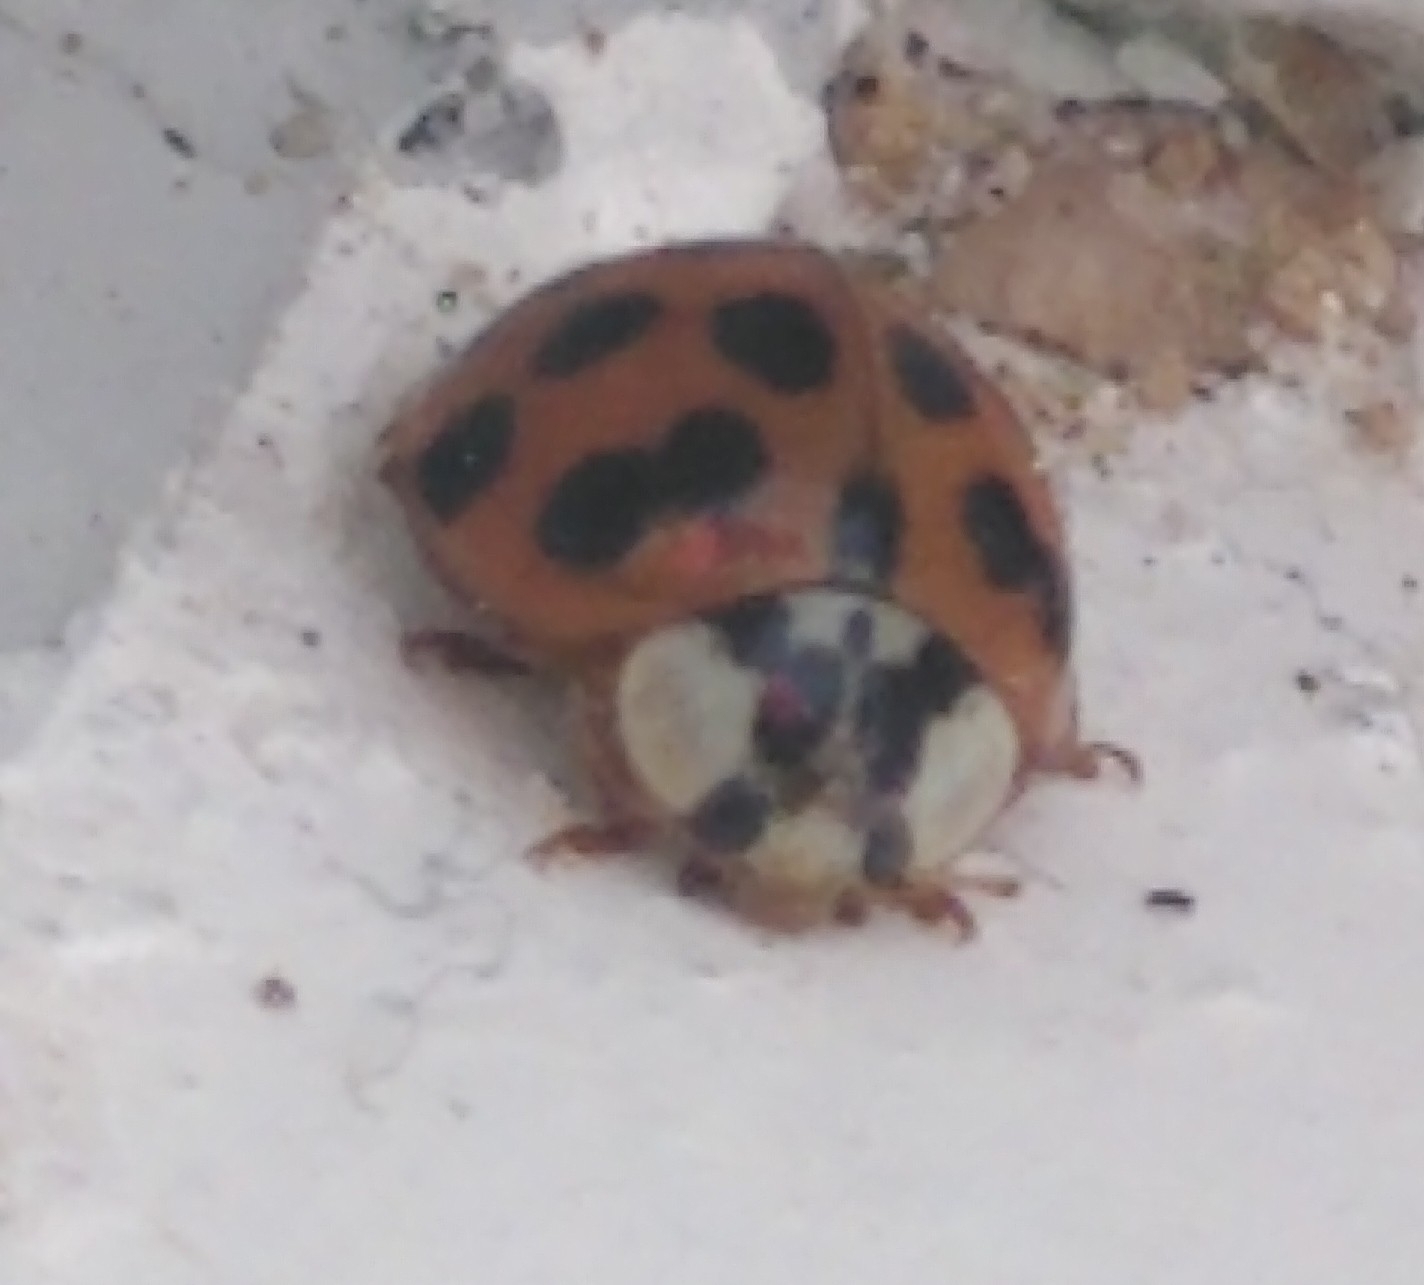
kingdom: Animalia
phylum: Arthropoda
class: Insecta
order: Coleoptera
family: Coccinellidae
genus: Harmonia
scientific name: Harmonia axyridis
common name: Harlequin ladybird
